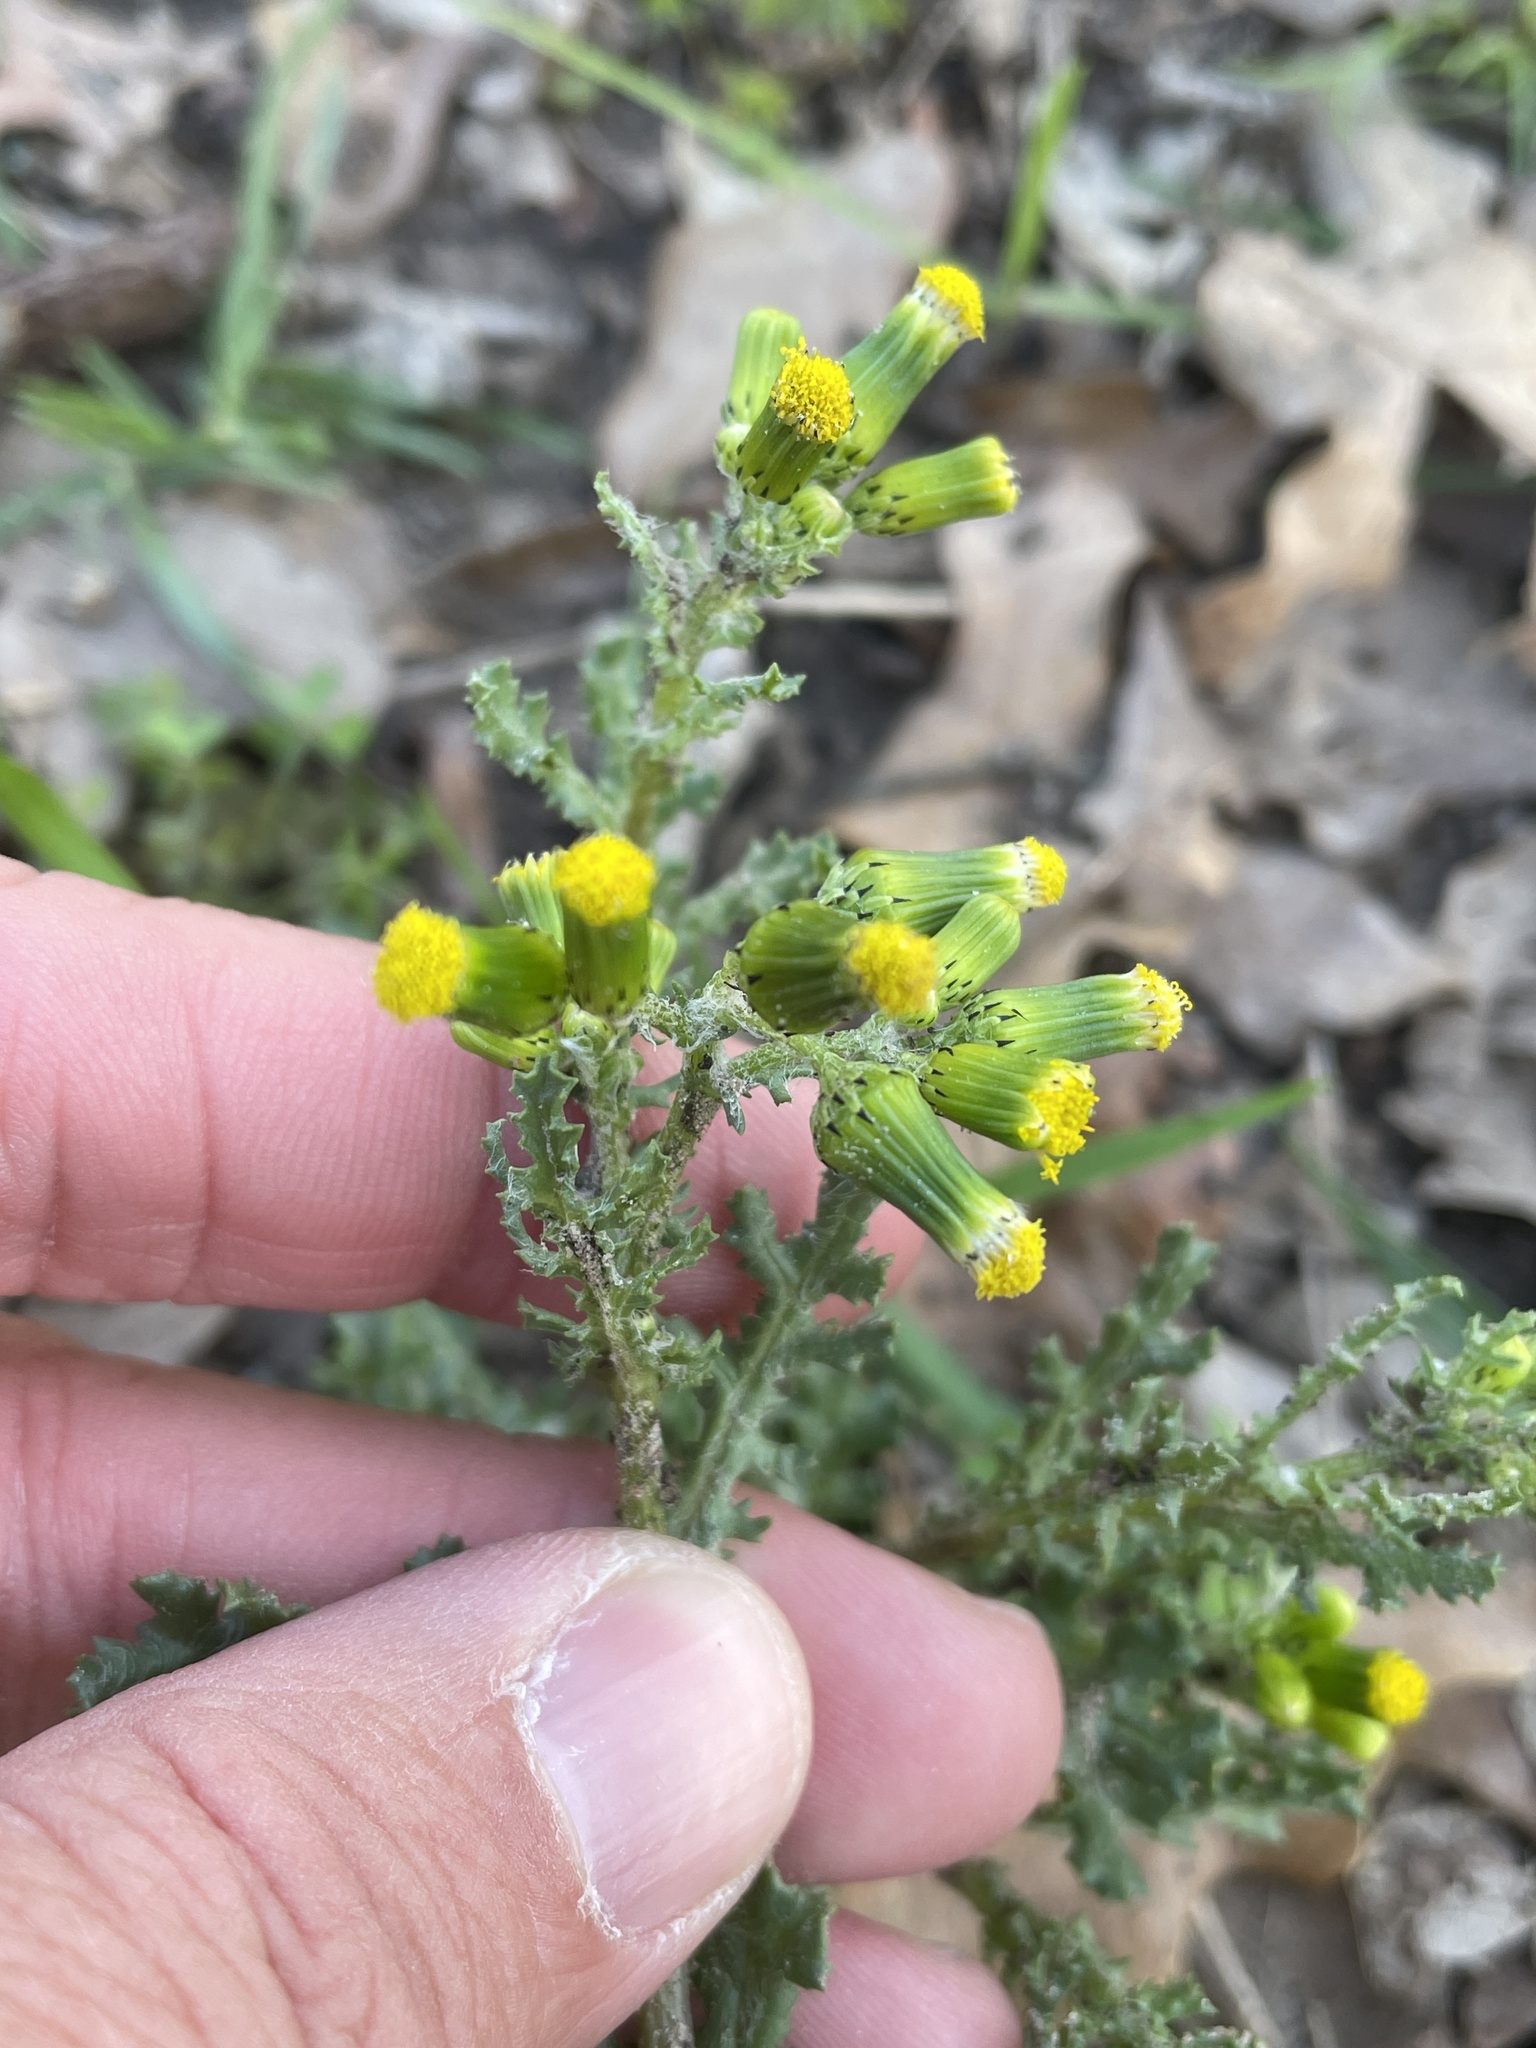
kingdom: Plantae
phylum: Tracheophyta
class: Magnoliopsida
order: Asterales
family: Asteraceae
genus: Senecio
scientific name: Senecio vulgaris
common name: Old-man-in-the-spring
